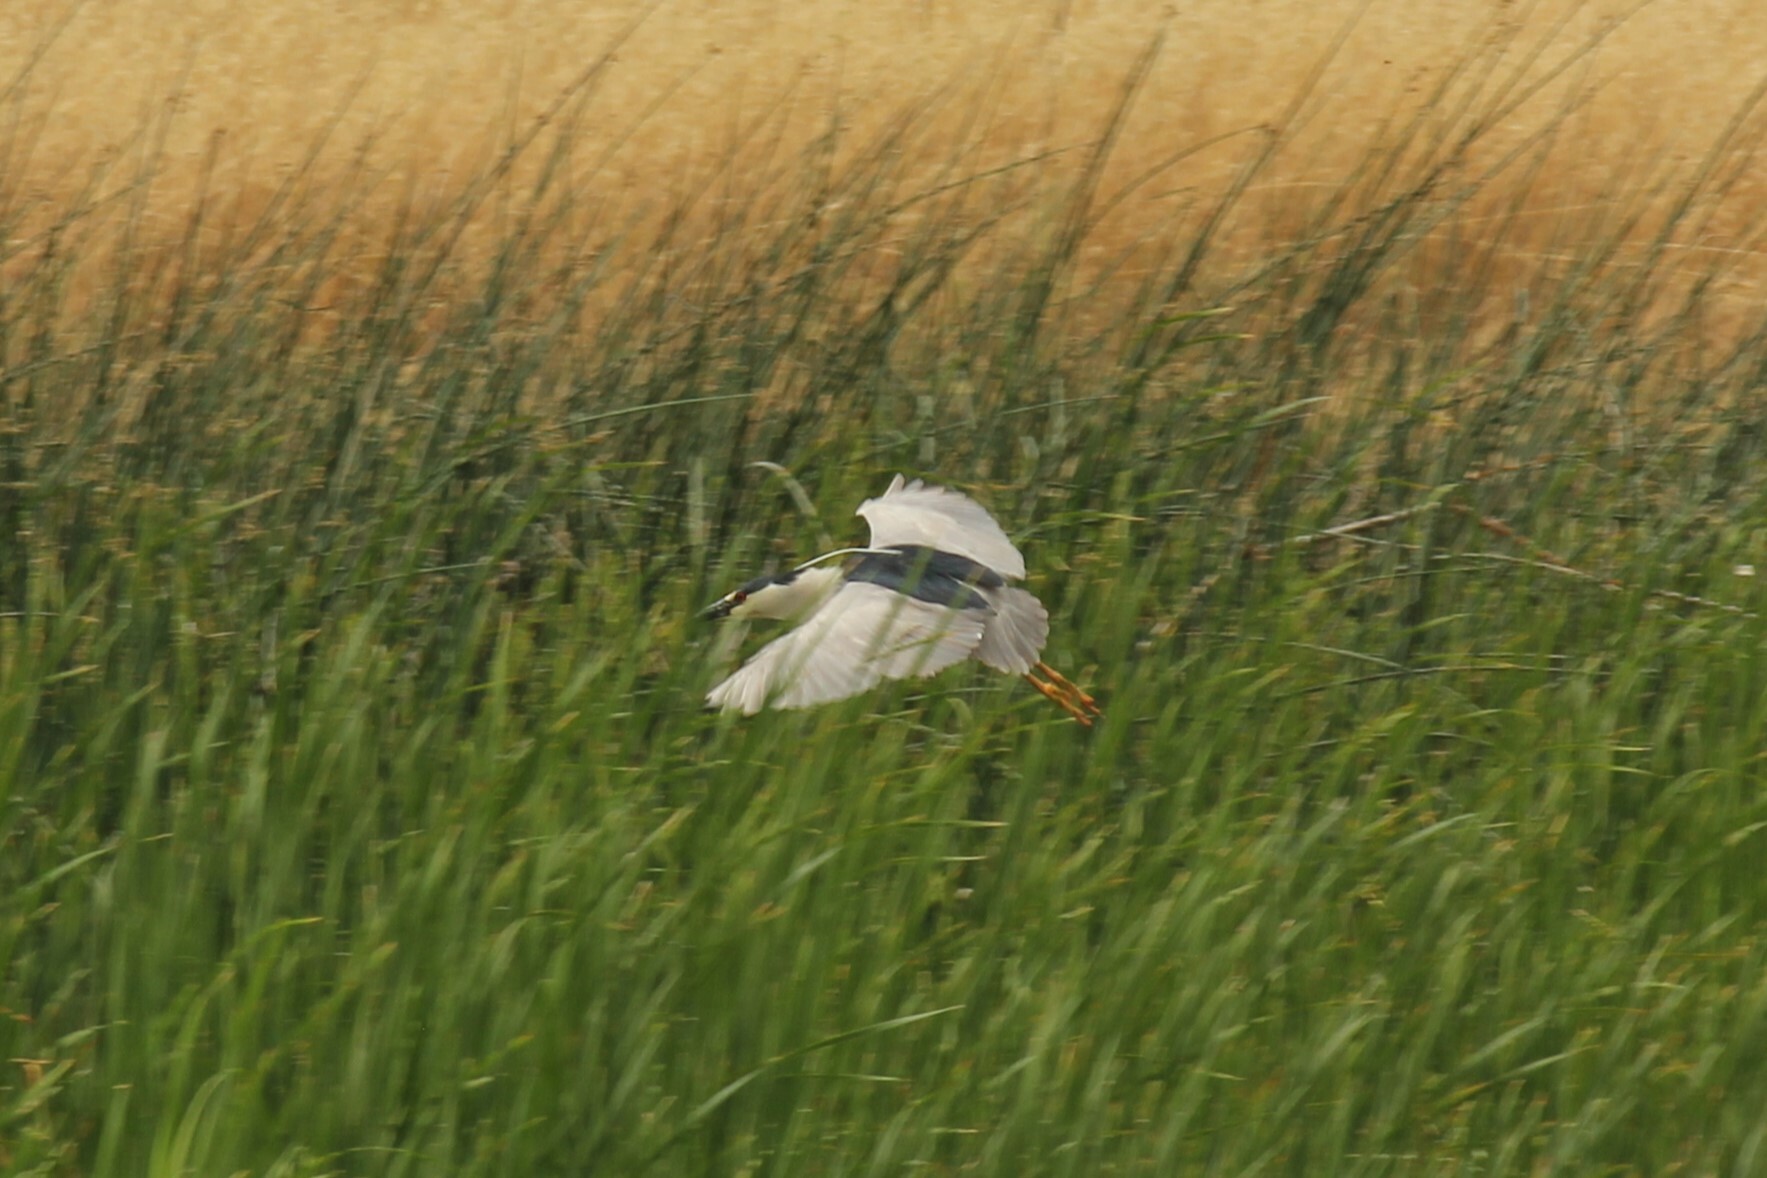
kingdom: Animalia
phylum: Chordata
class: Aves
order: Pelecaniformes
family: Ardeidae
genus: Nycticorax
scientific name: Nycticorax nycticorax
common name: Black-crowned night heron
